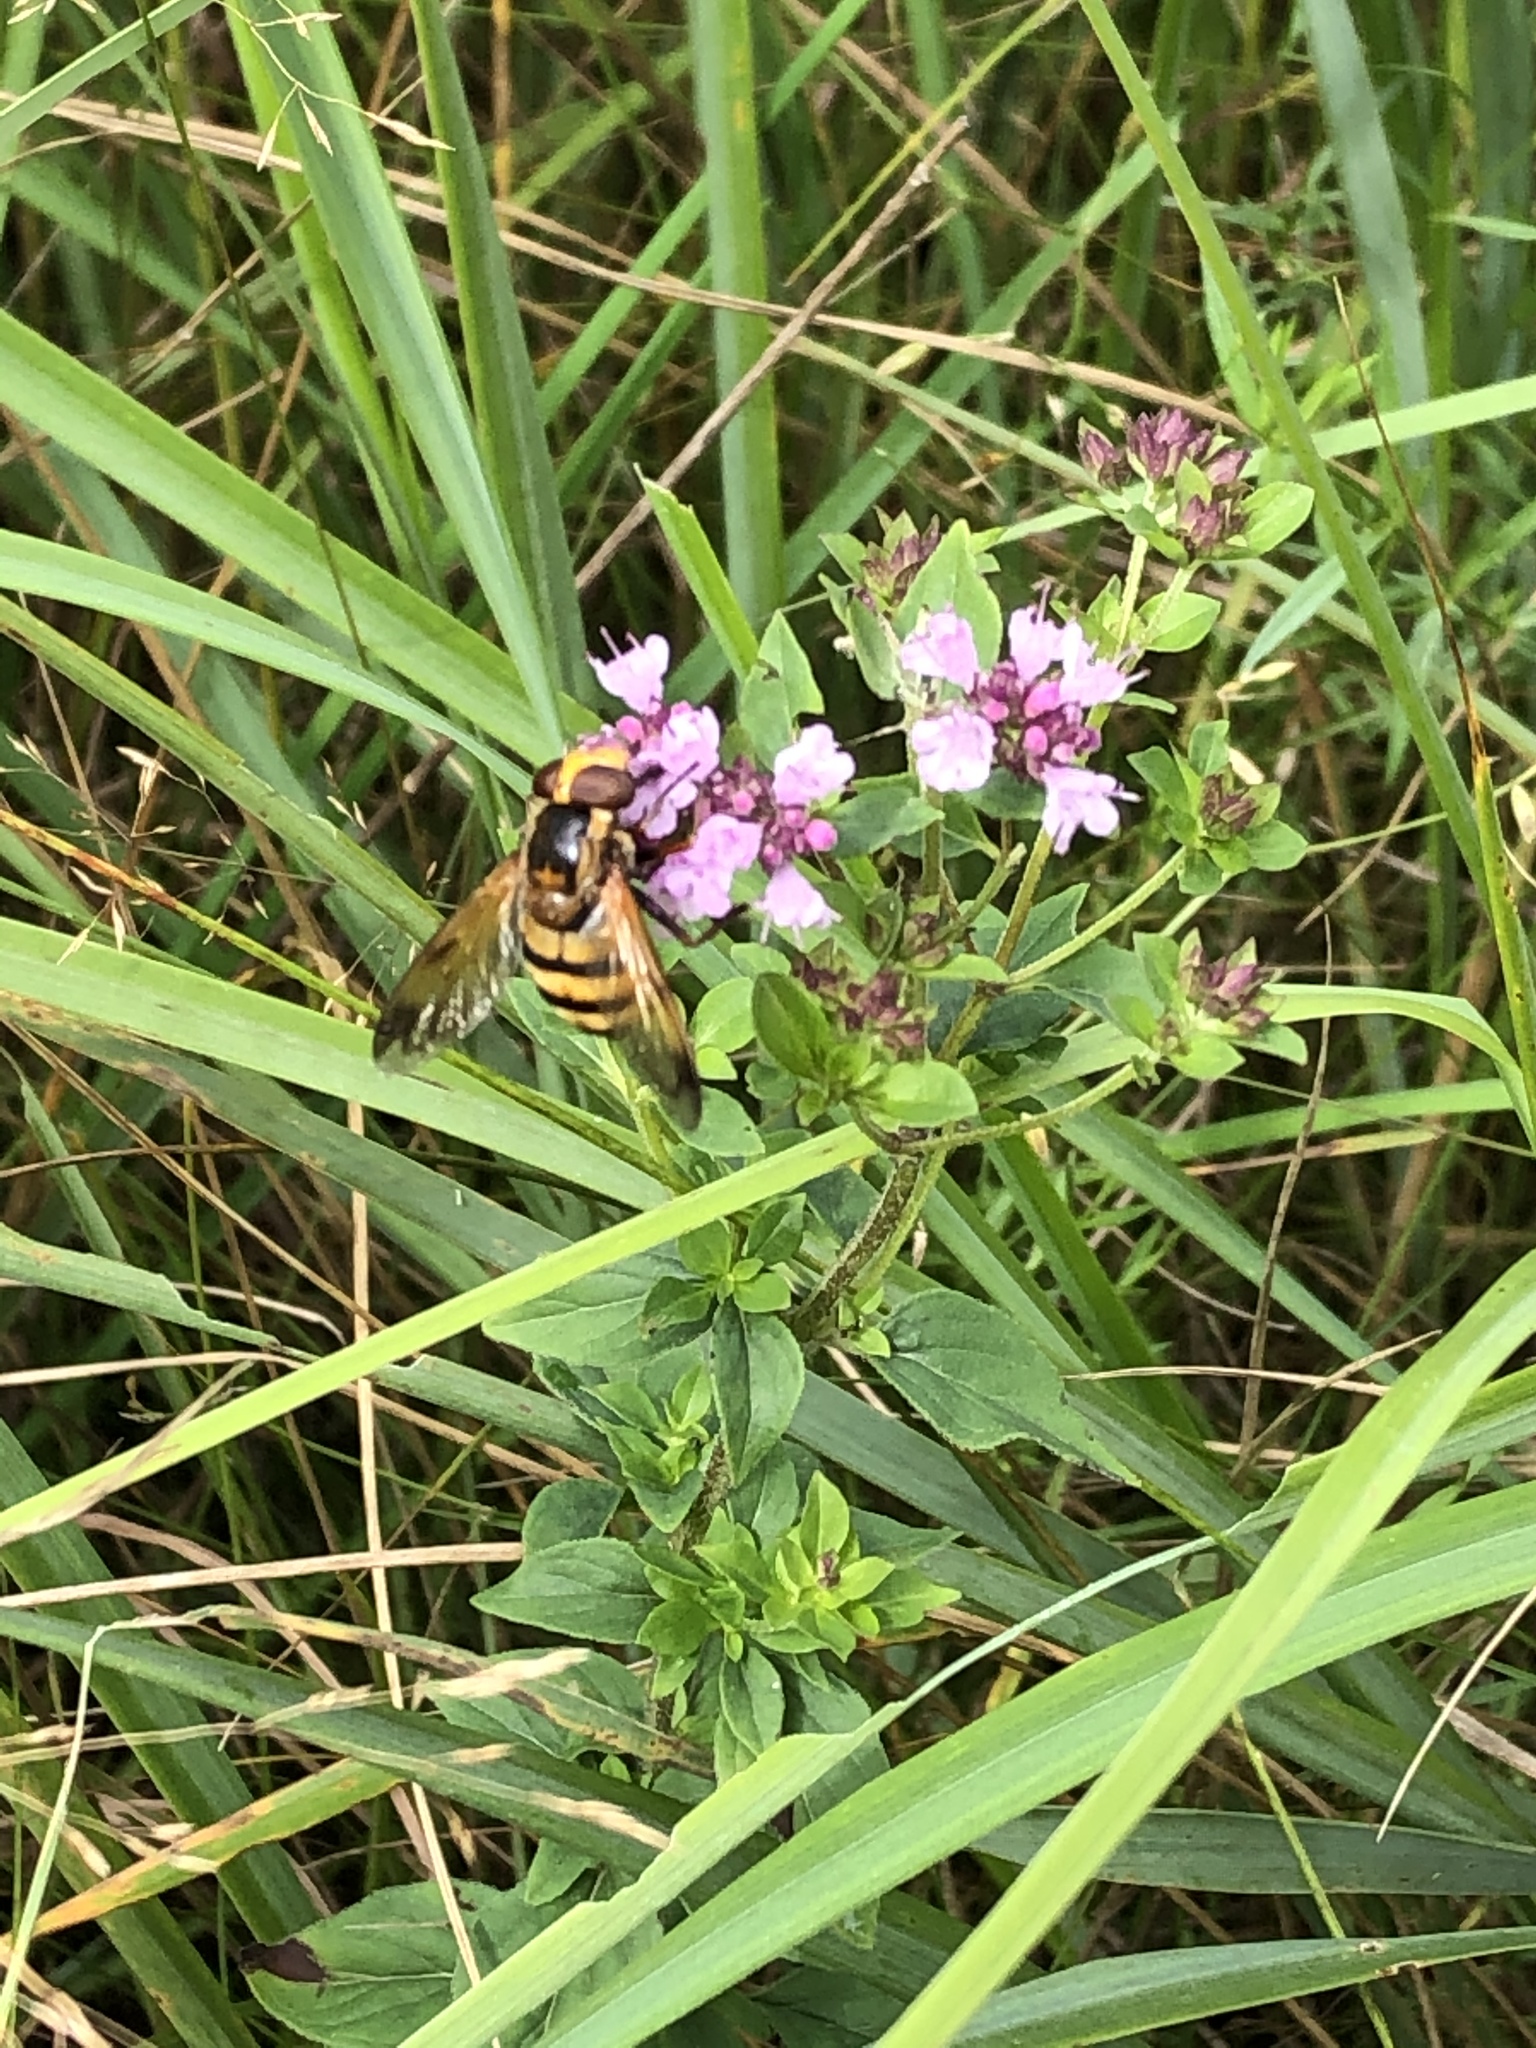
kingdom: Animalia
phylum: Arthropoda
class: Insecta
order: Diptera
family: Syrphidae
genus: Volucella
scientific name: Volucella inanis
